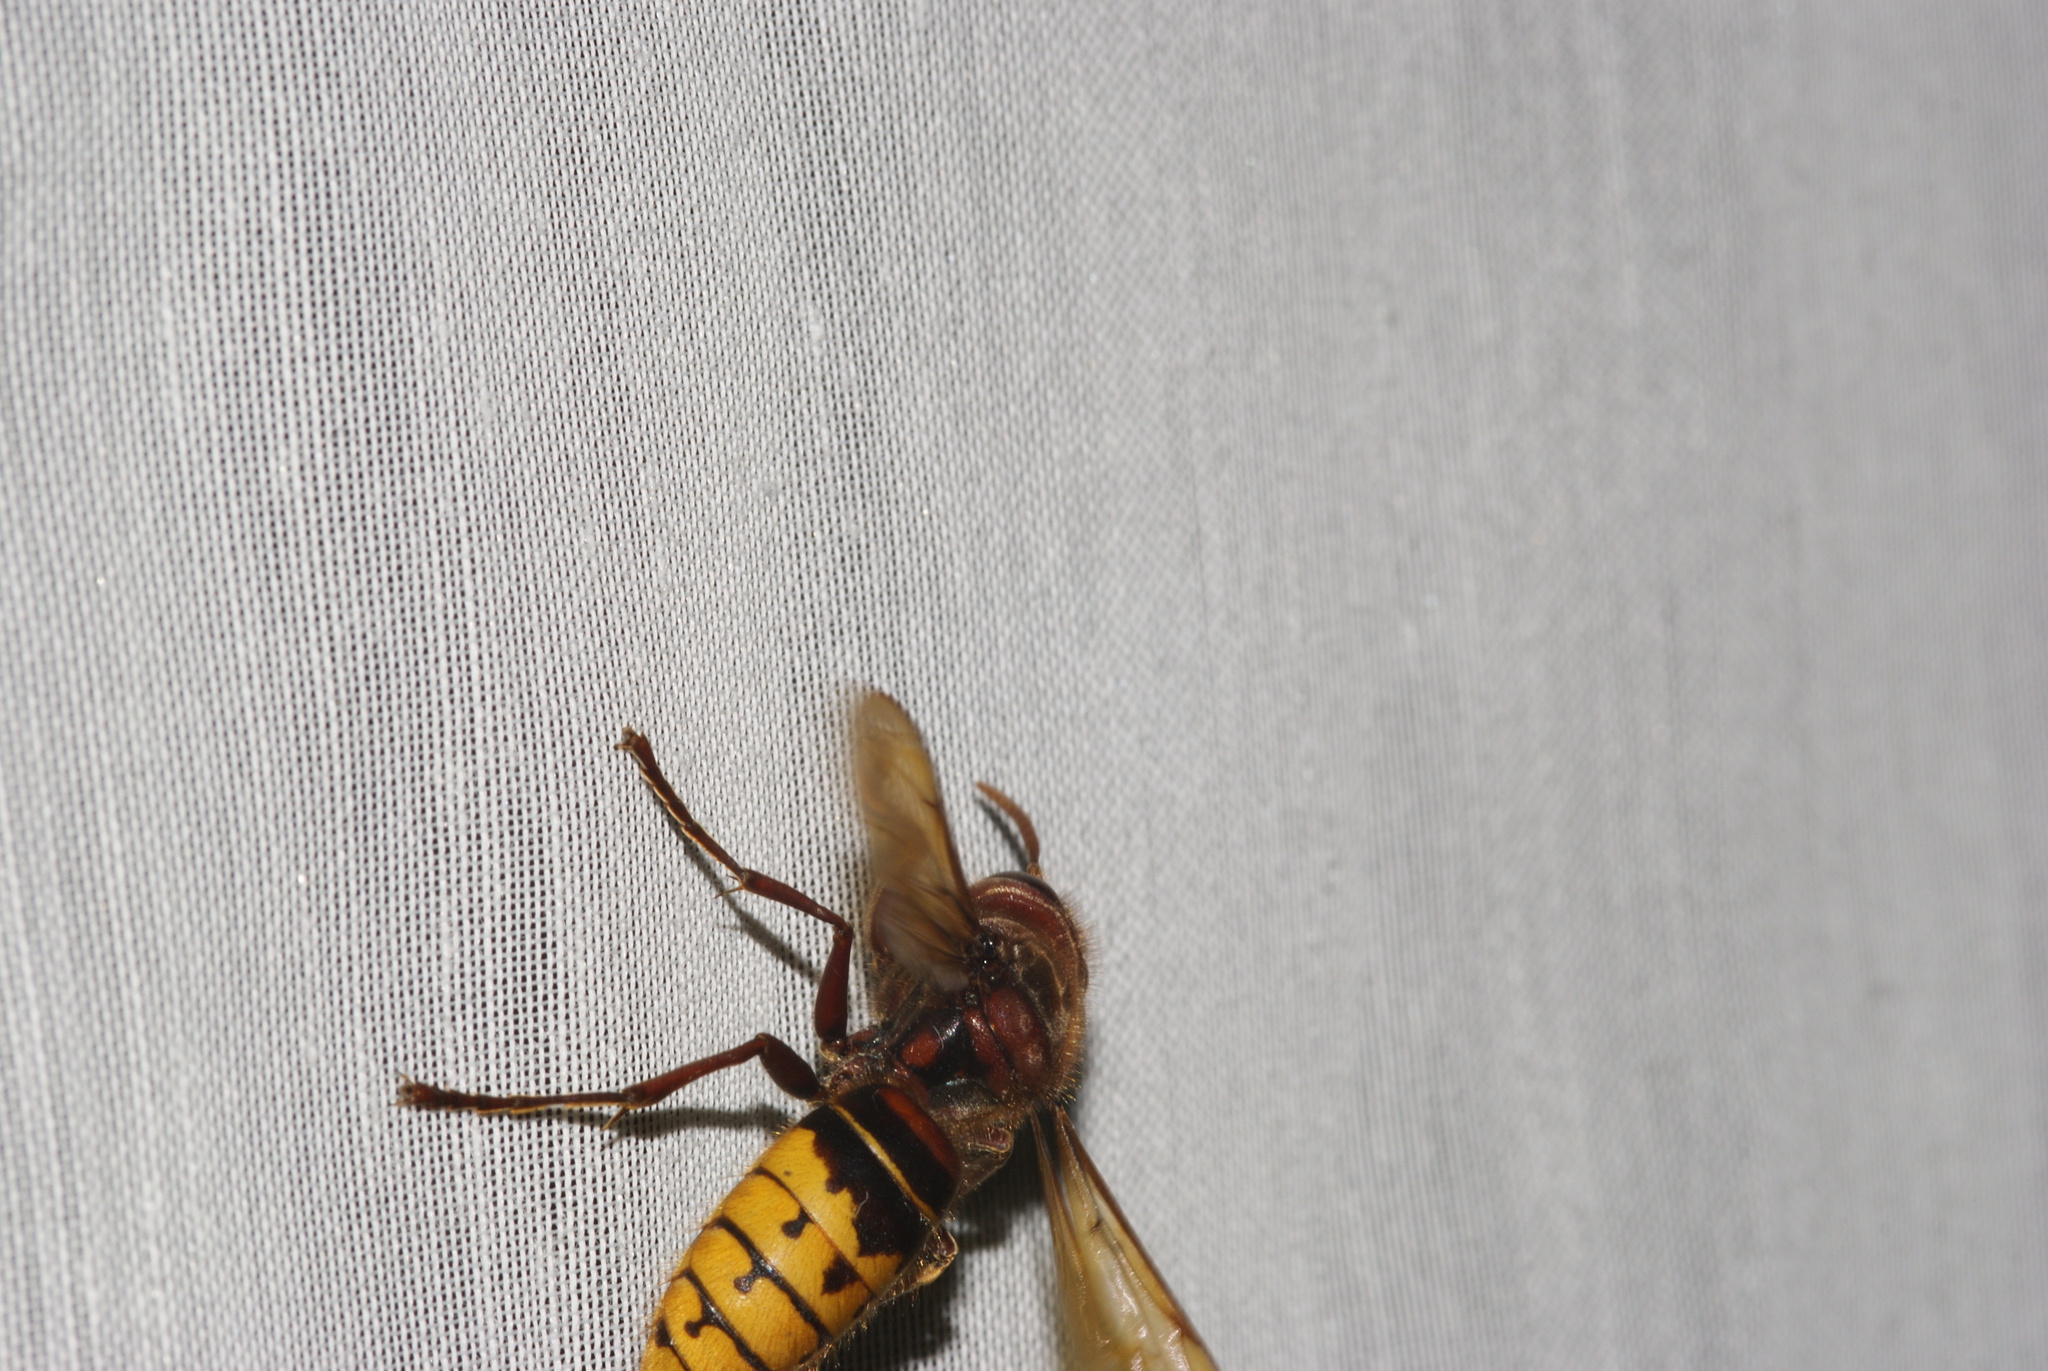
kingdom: Animalia
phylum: Arthropoda
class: Insecta
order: Hymenoptera
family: Vespidae
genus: Vespa
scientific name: Vespa crabro
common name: Hornet
